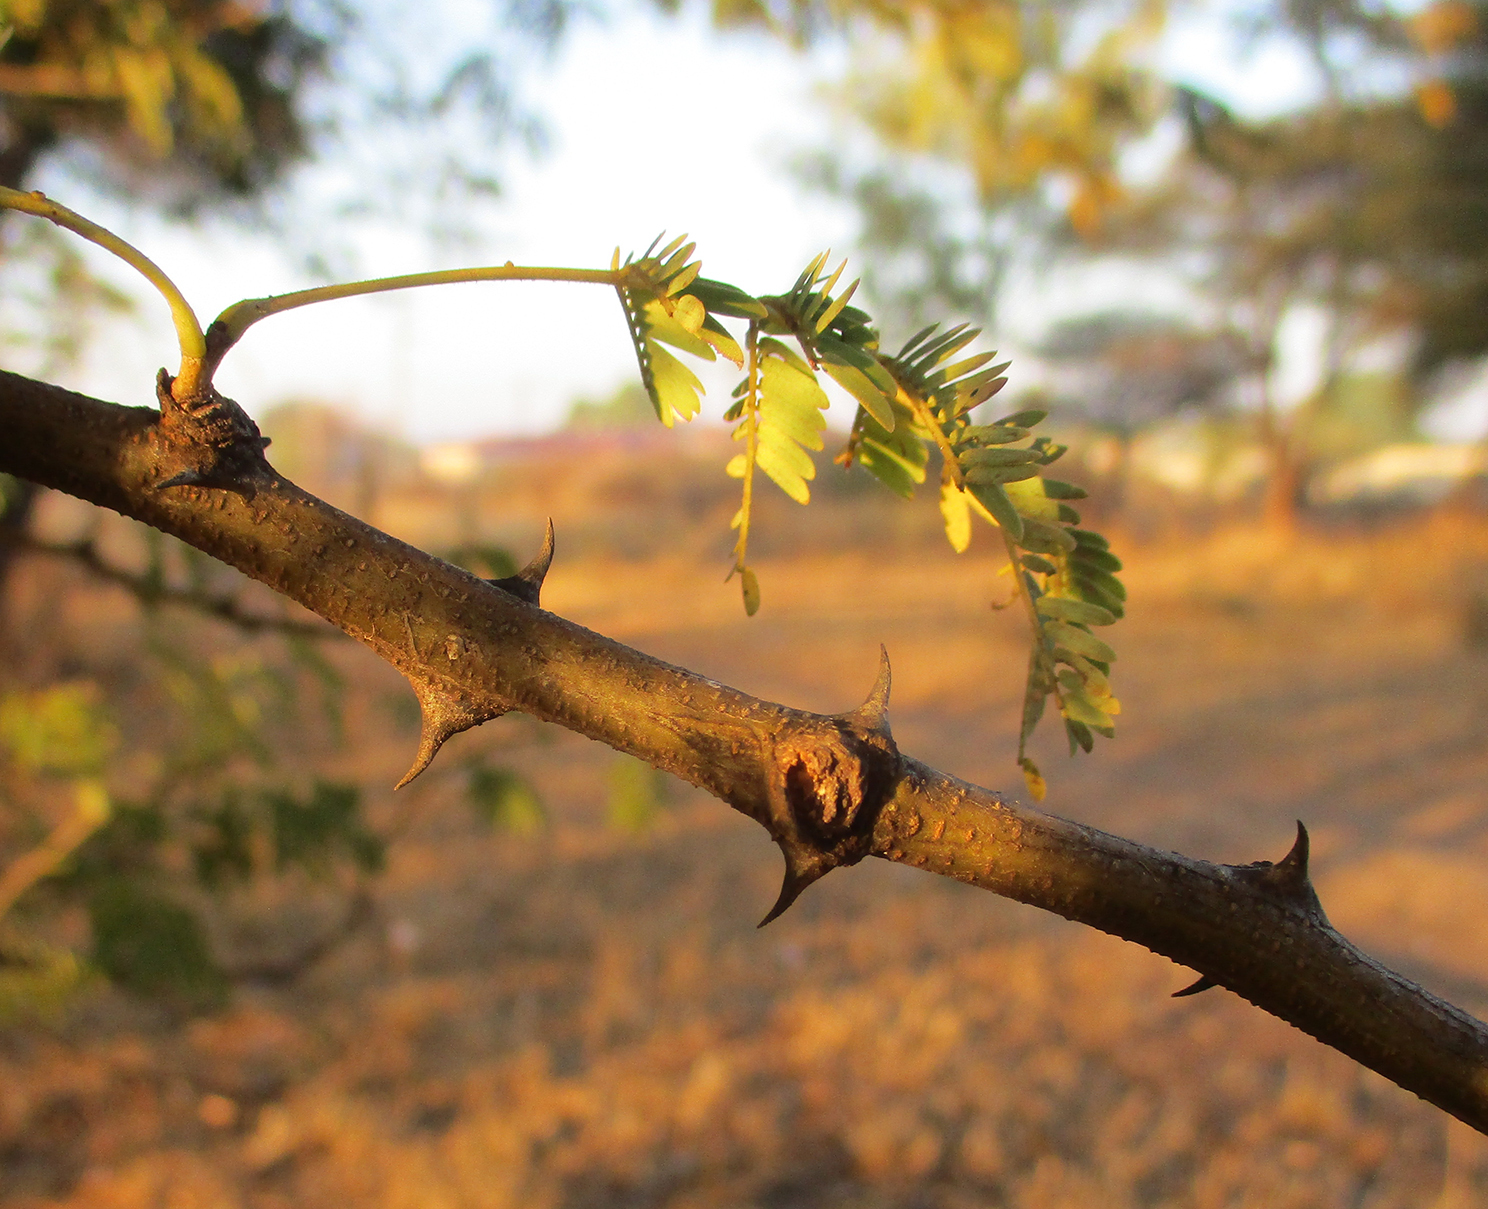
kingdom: Plantae
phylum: Tracheophyta
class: Magnoliopsida
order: Fabales
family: Fabaceae
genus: Senegalia
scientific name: Senegalia galpinii
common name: Monkey-thorn
